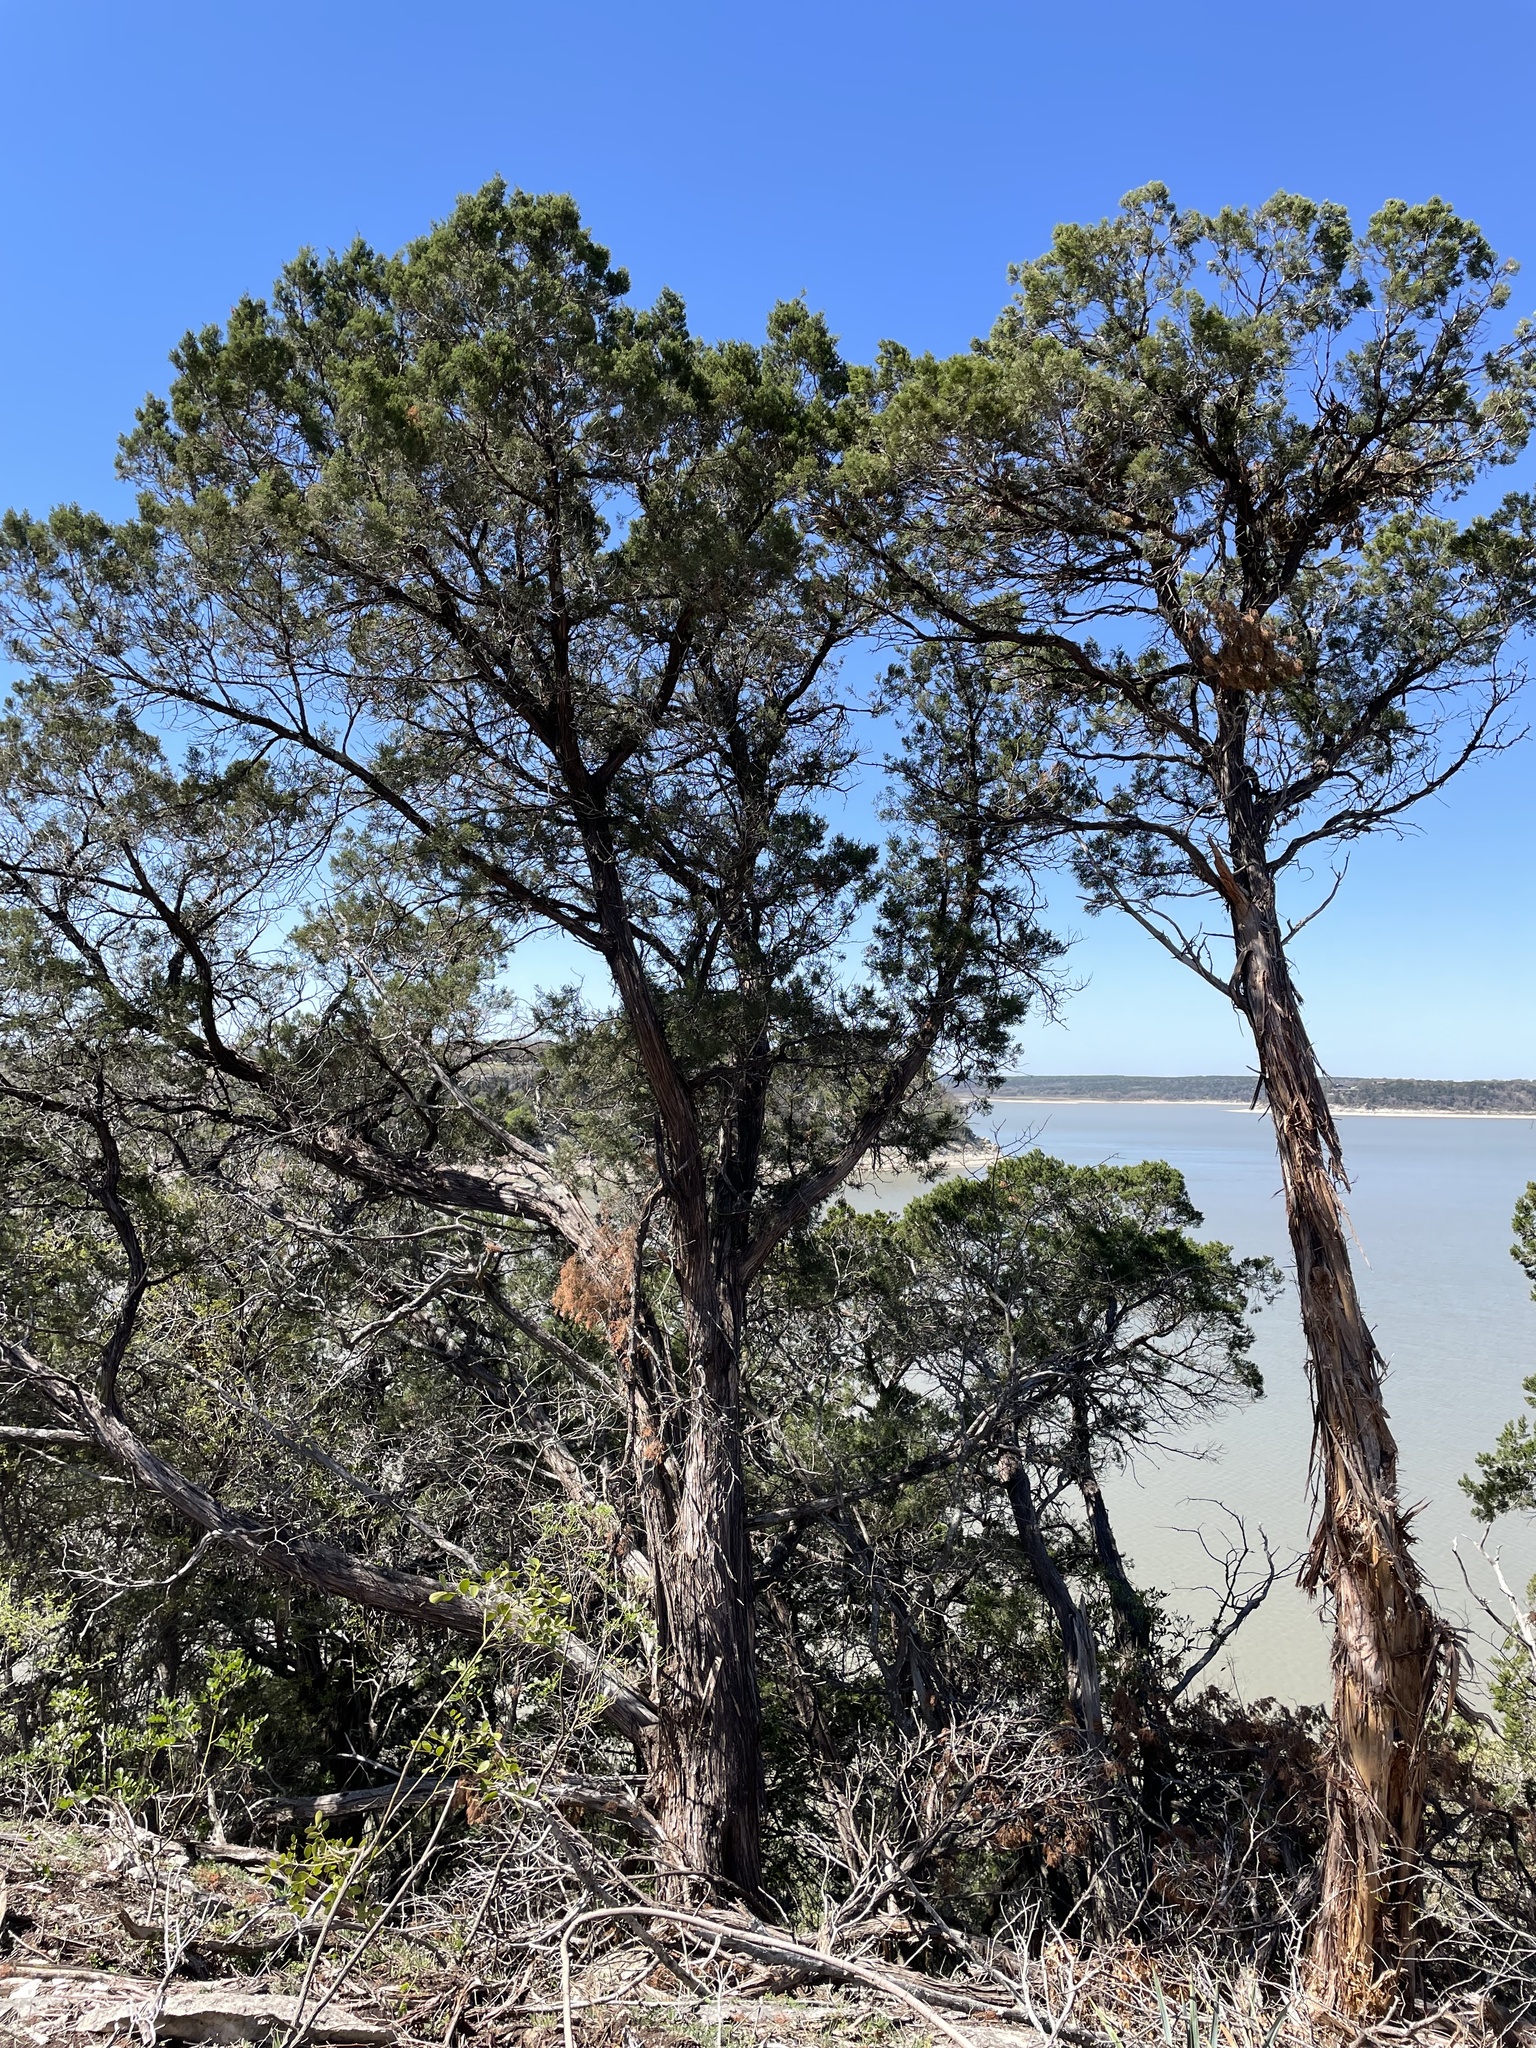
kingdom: Plantae
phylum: Tracheophyta
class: Pinopsida
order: Pinales
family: Cupressaceae
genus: Juniperus
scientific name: Juniperus ashei
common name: Mexican juniper
